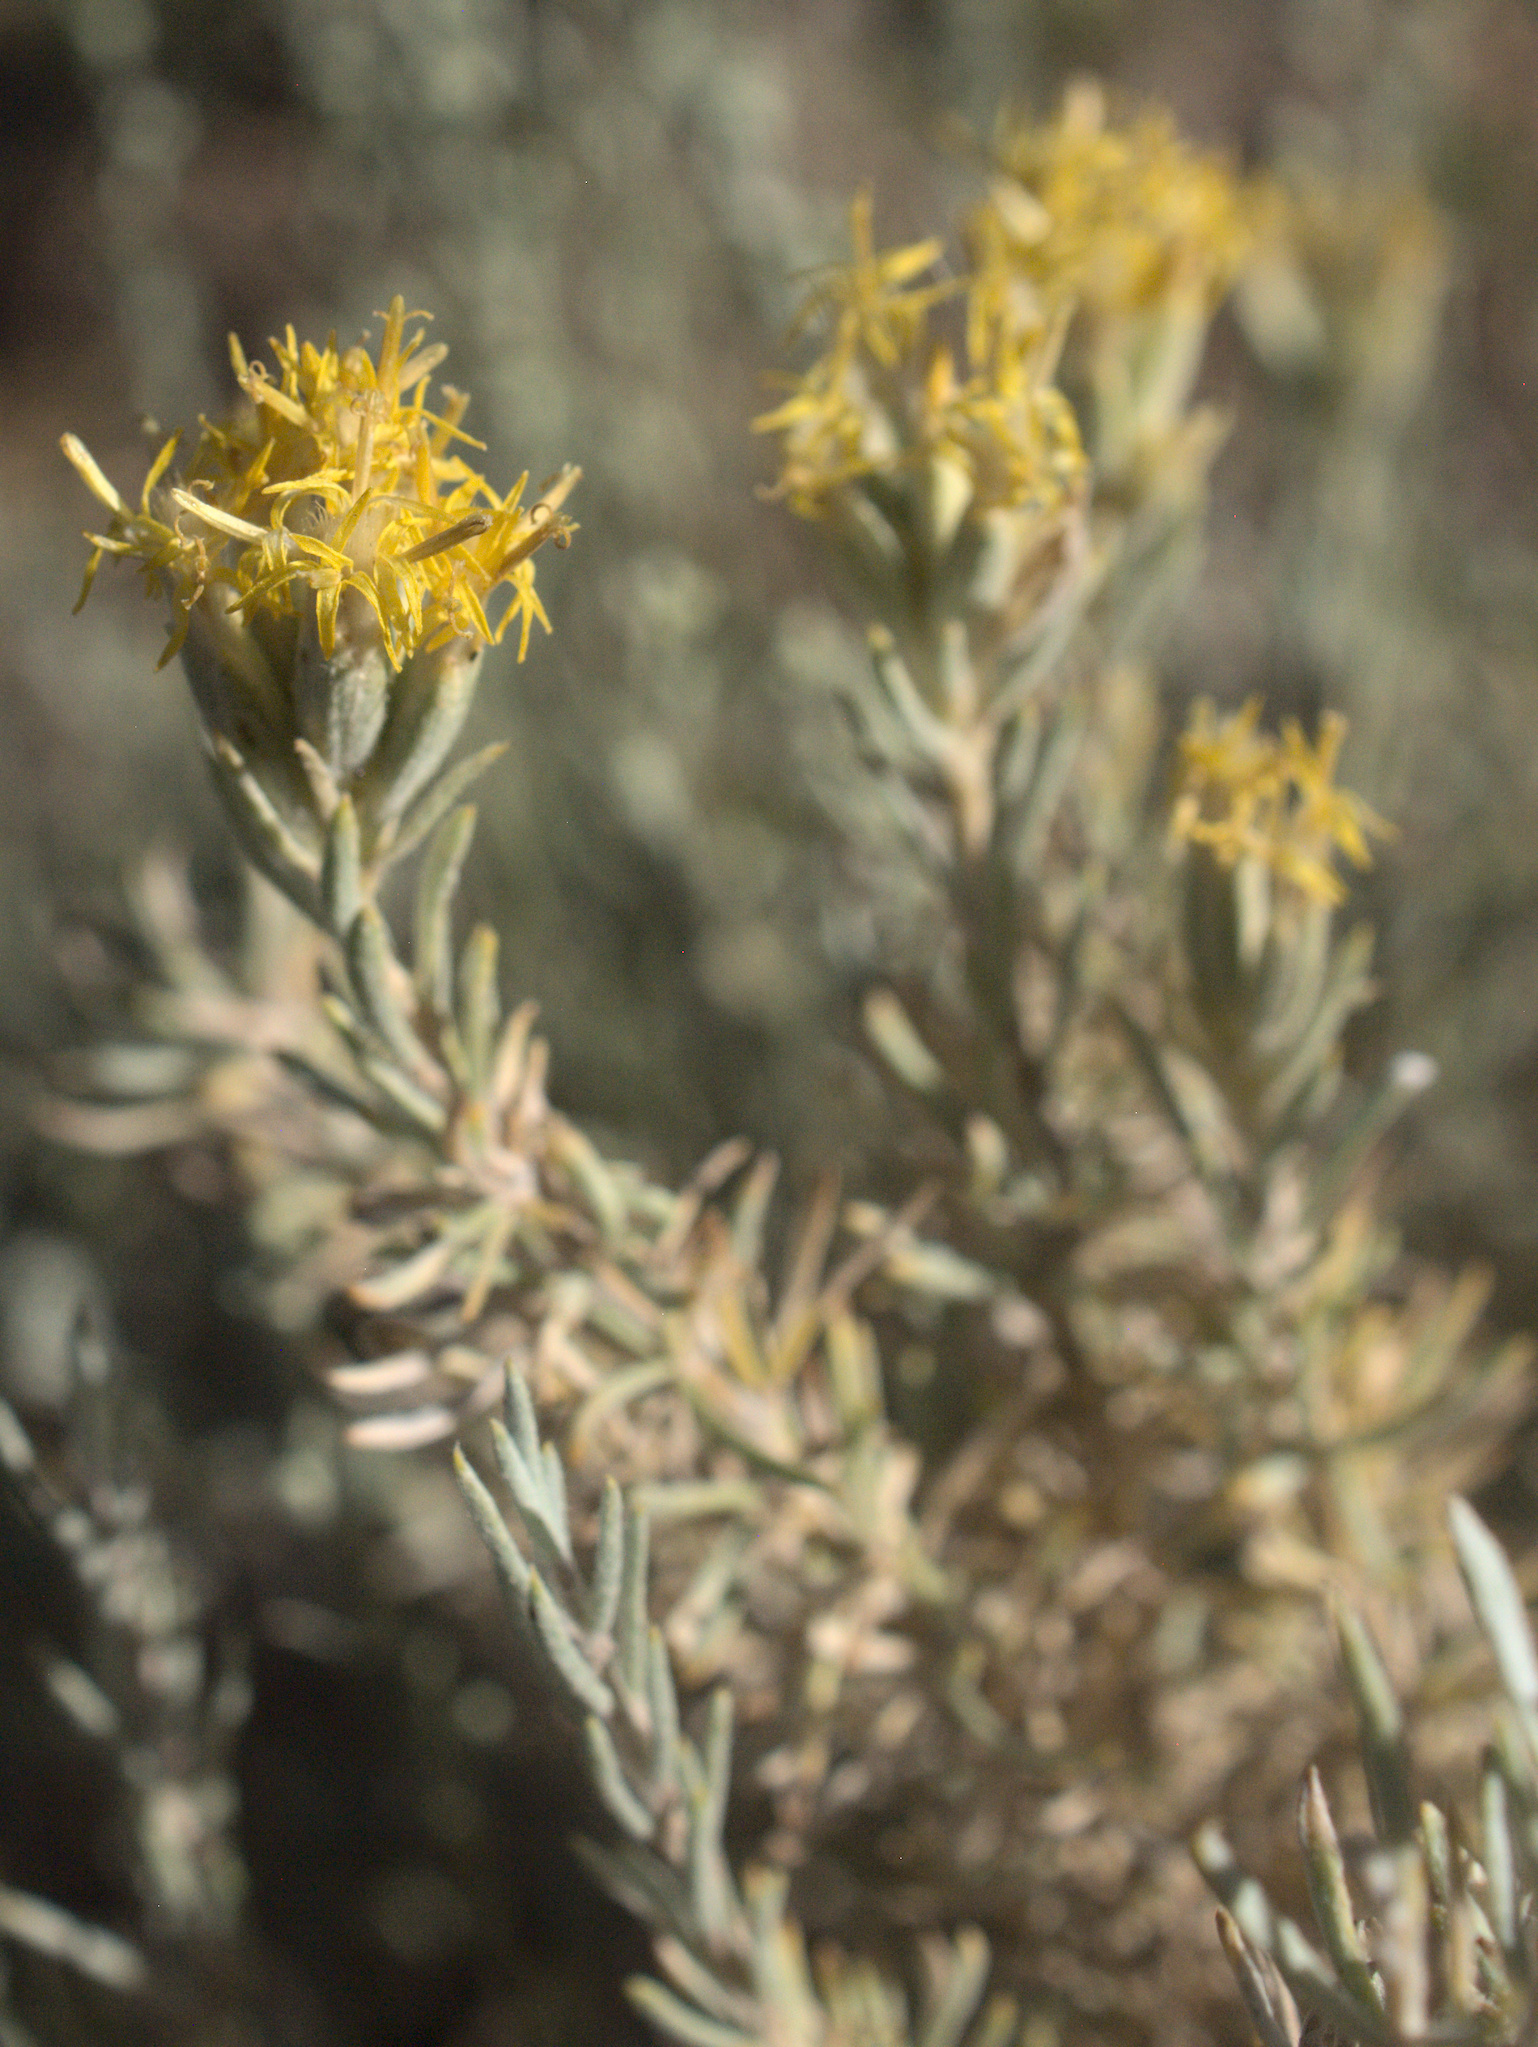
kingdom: Plantae
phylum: Tracheophyta
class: Magnoliopsida
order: Asterales
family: Asteraceae
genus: Tetradymia
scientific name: Tetradymia canescens
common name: Spineless horsebrush
